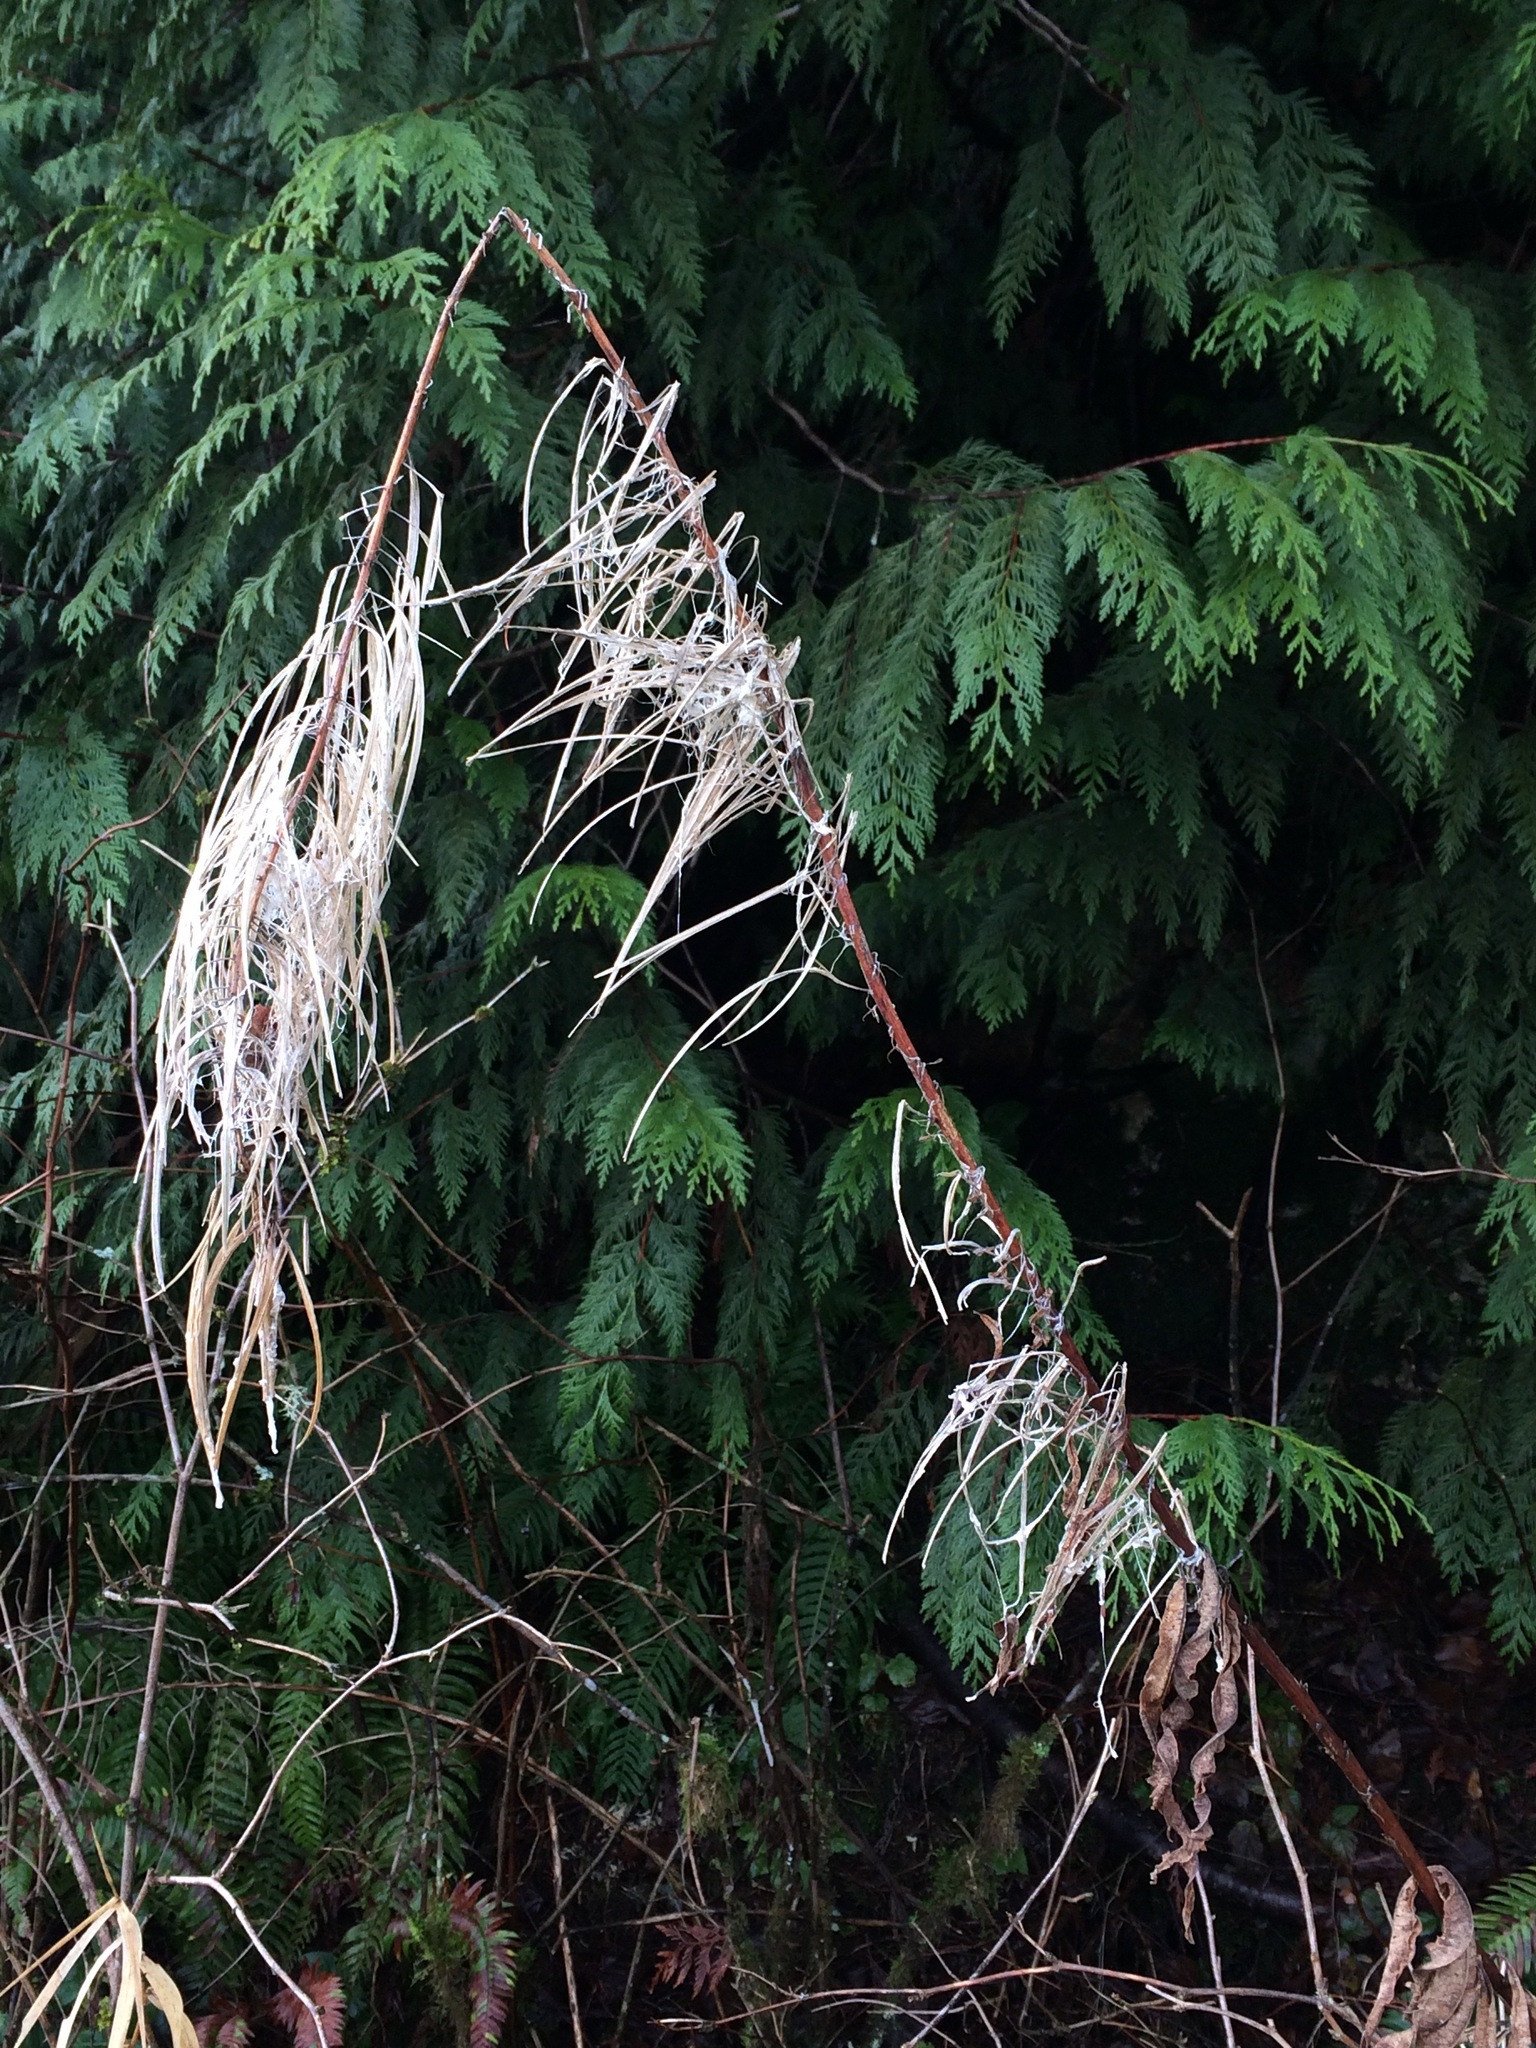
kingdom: Plantae
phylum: Tracheophyta
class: Magnoliopsida
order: Myrtales
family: Onagraceae
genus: Chamaenerion
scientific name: Chamaenerion angustifolium
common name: Fireweed
